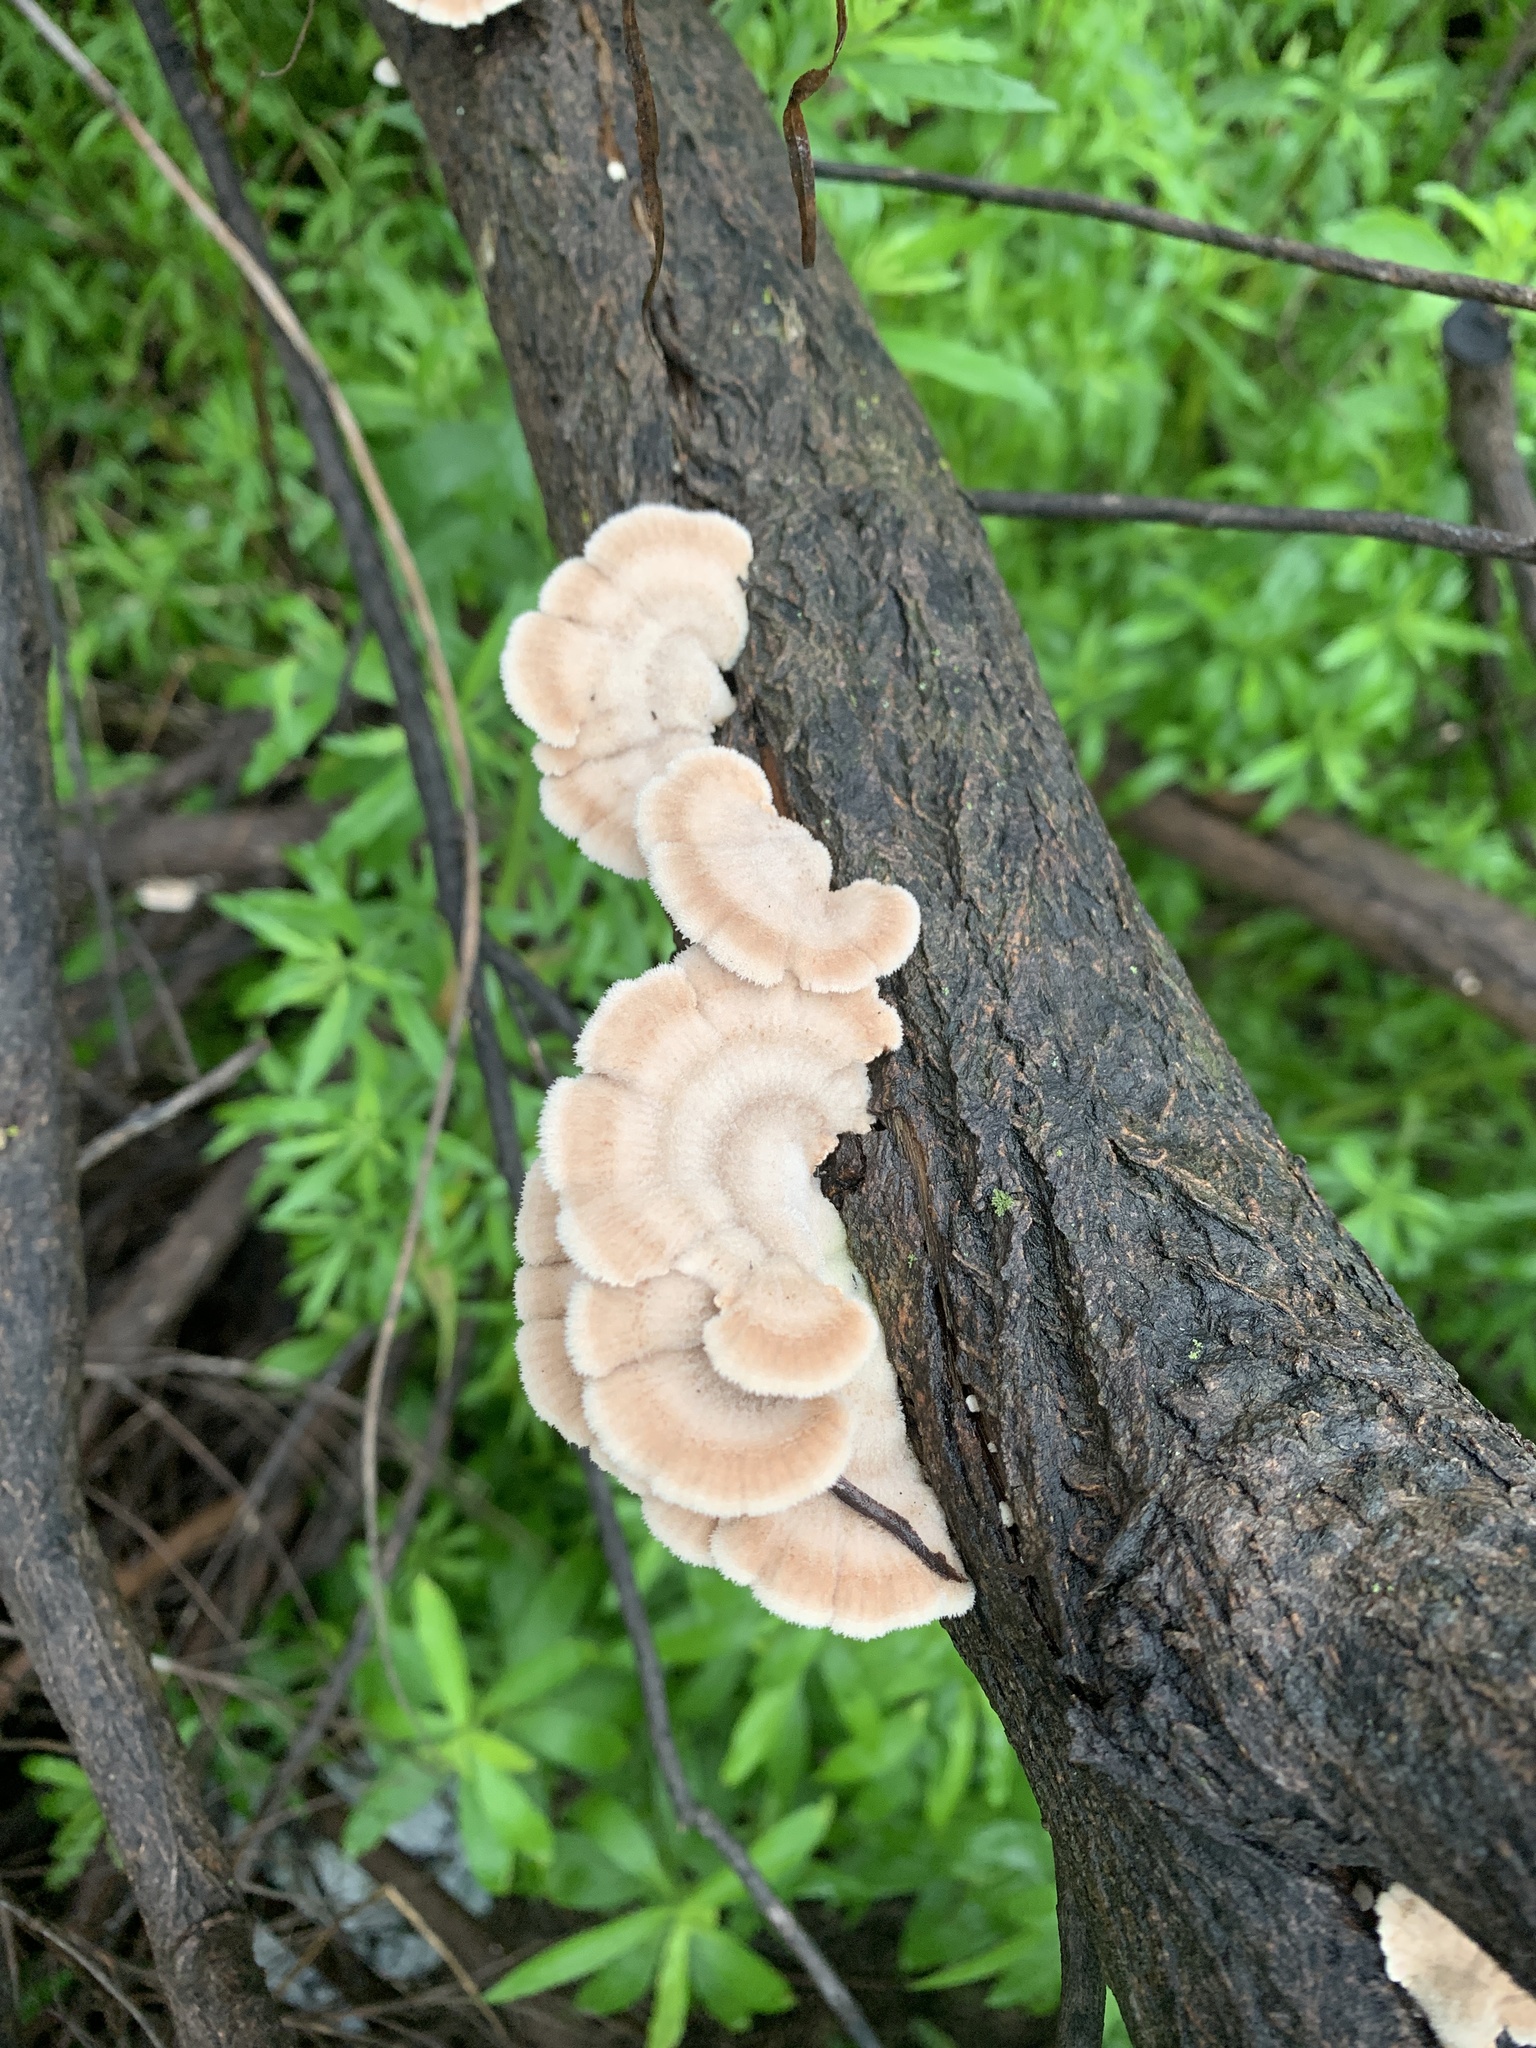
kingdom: Fungi
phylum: Basidiomycota
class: Agaricomycetes
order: Agaricales
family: Schizophyllaceae
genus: Schizophyllum
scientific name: Schizophyllum commune
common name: Common porecrust
